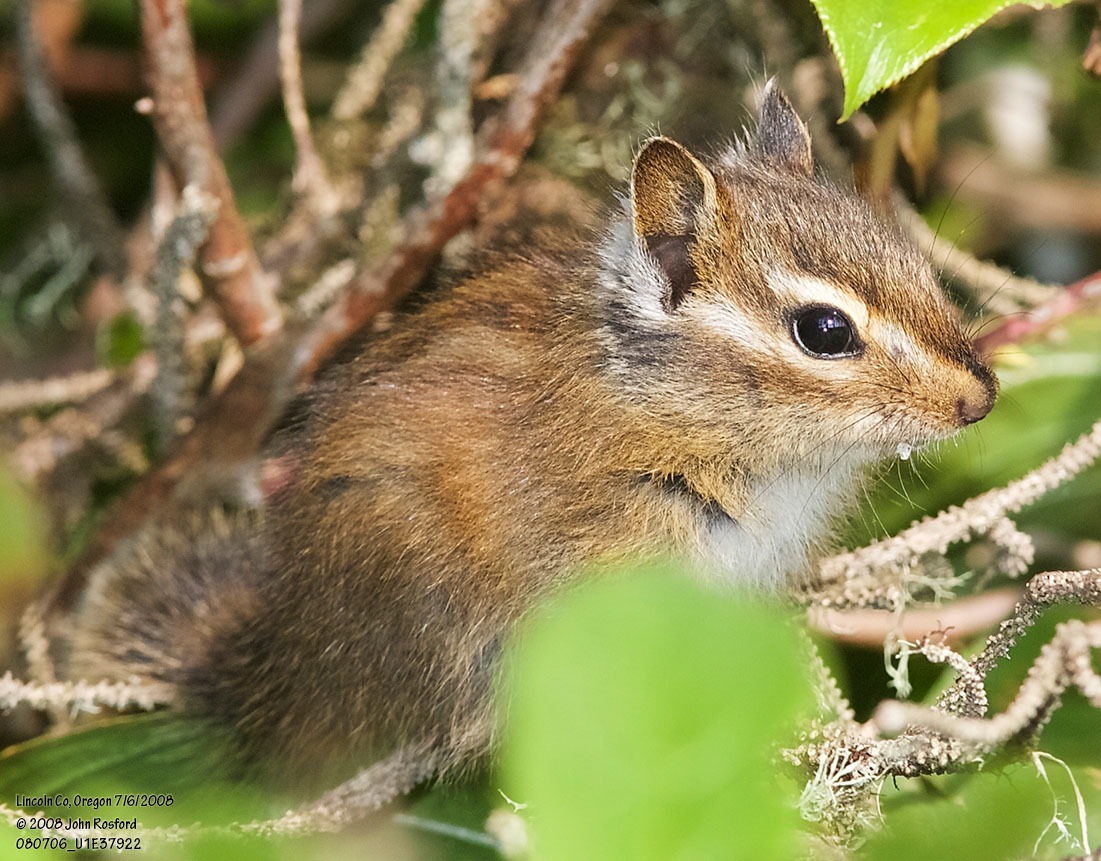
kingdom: Animalia
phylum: Chordata
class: Mammalia
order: Rodentia
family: Sciuridae
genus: Tamias
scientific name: Tamias townsendii
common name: Townsend's chipmunk
